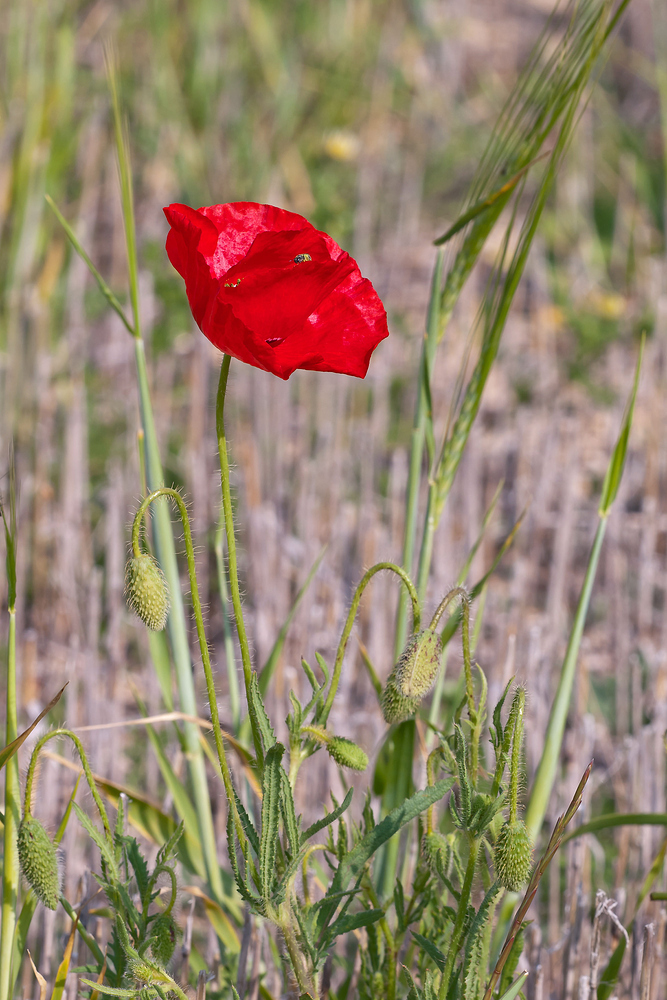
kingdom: Plantae
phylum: Tracheophyta
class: Magnoliopsida
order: Ranunculales
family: Papaveraceae
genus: Papaver
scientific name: Papaver rhoeas
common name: Corn poppy
